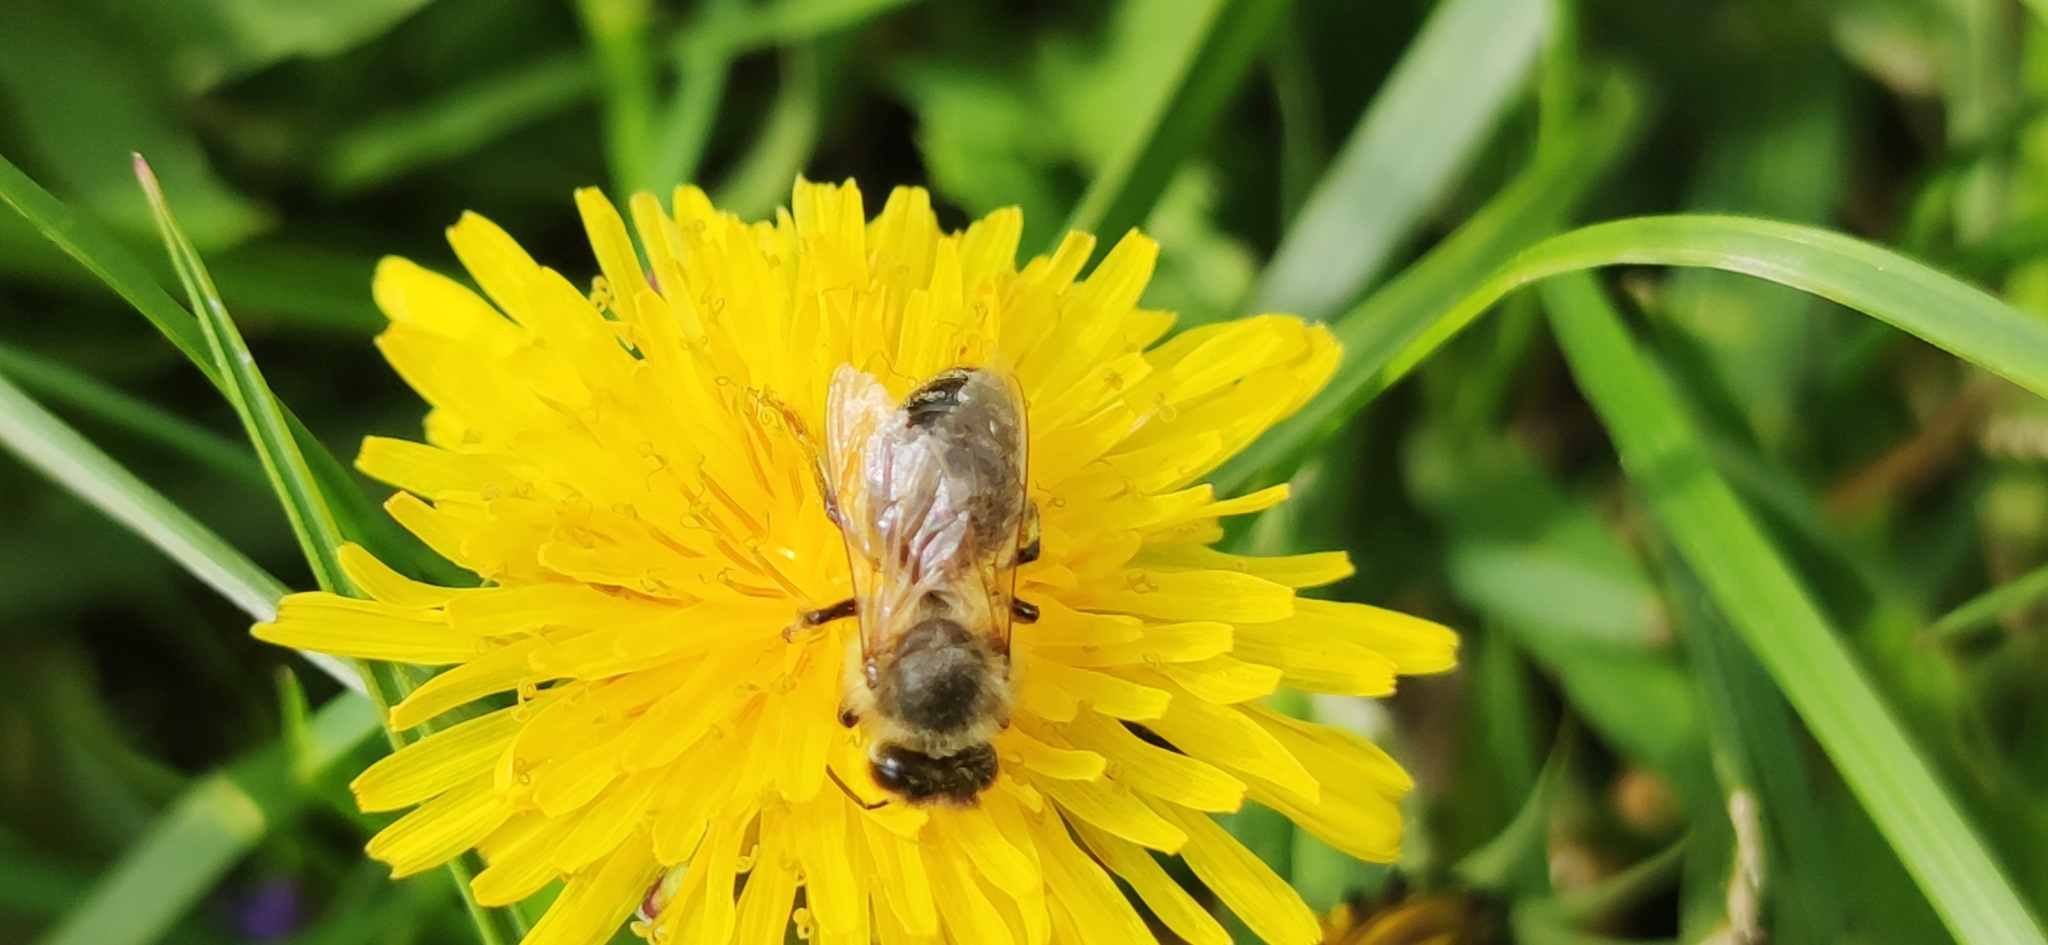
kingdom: Animalia
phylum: Arthropoda
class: Insecta
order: Hymenoptera
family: Apidae
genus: Apis
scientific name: Apis mellifera
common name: Honey bee
